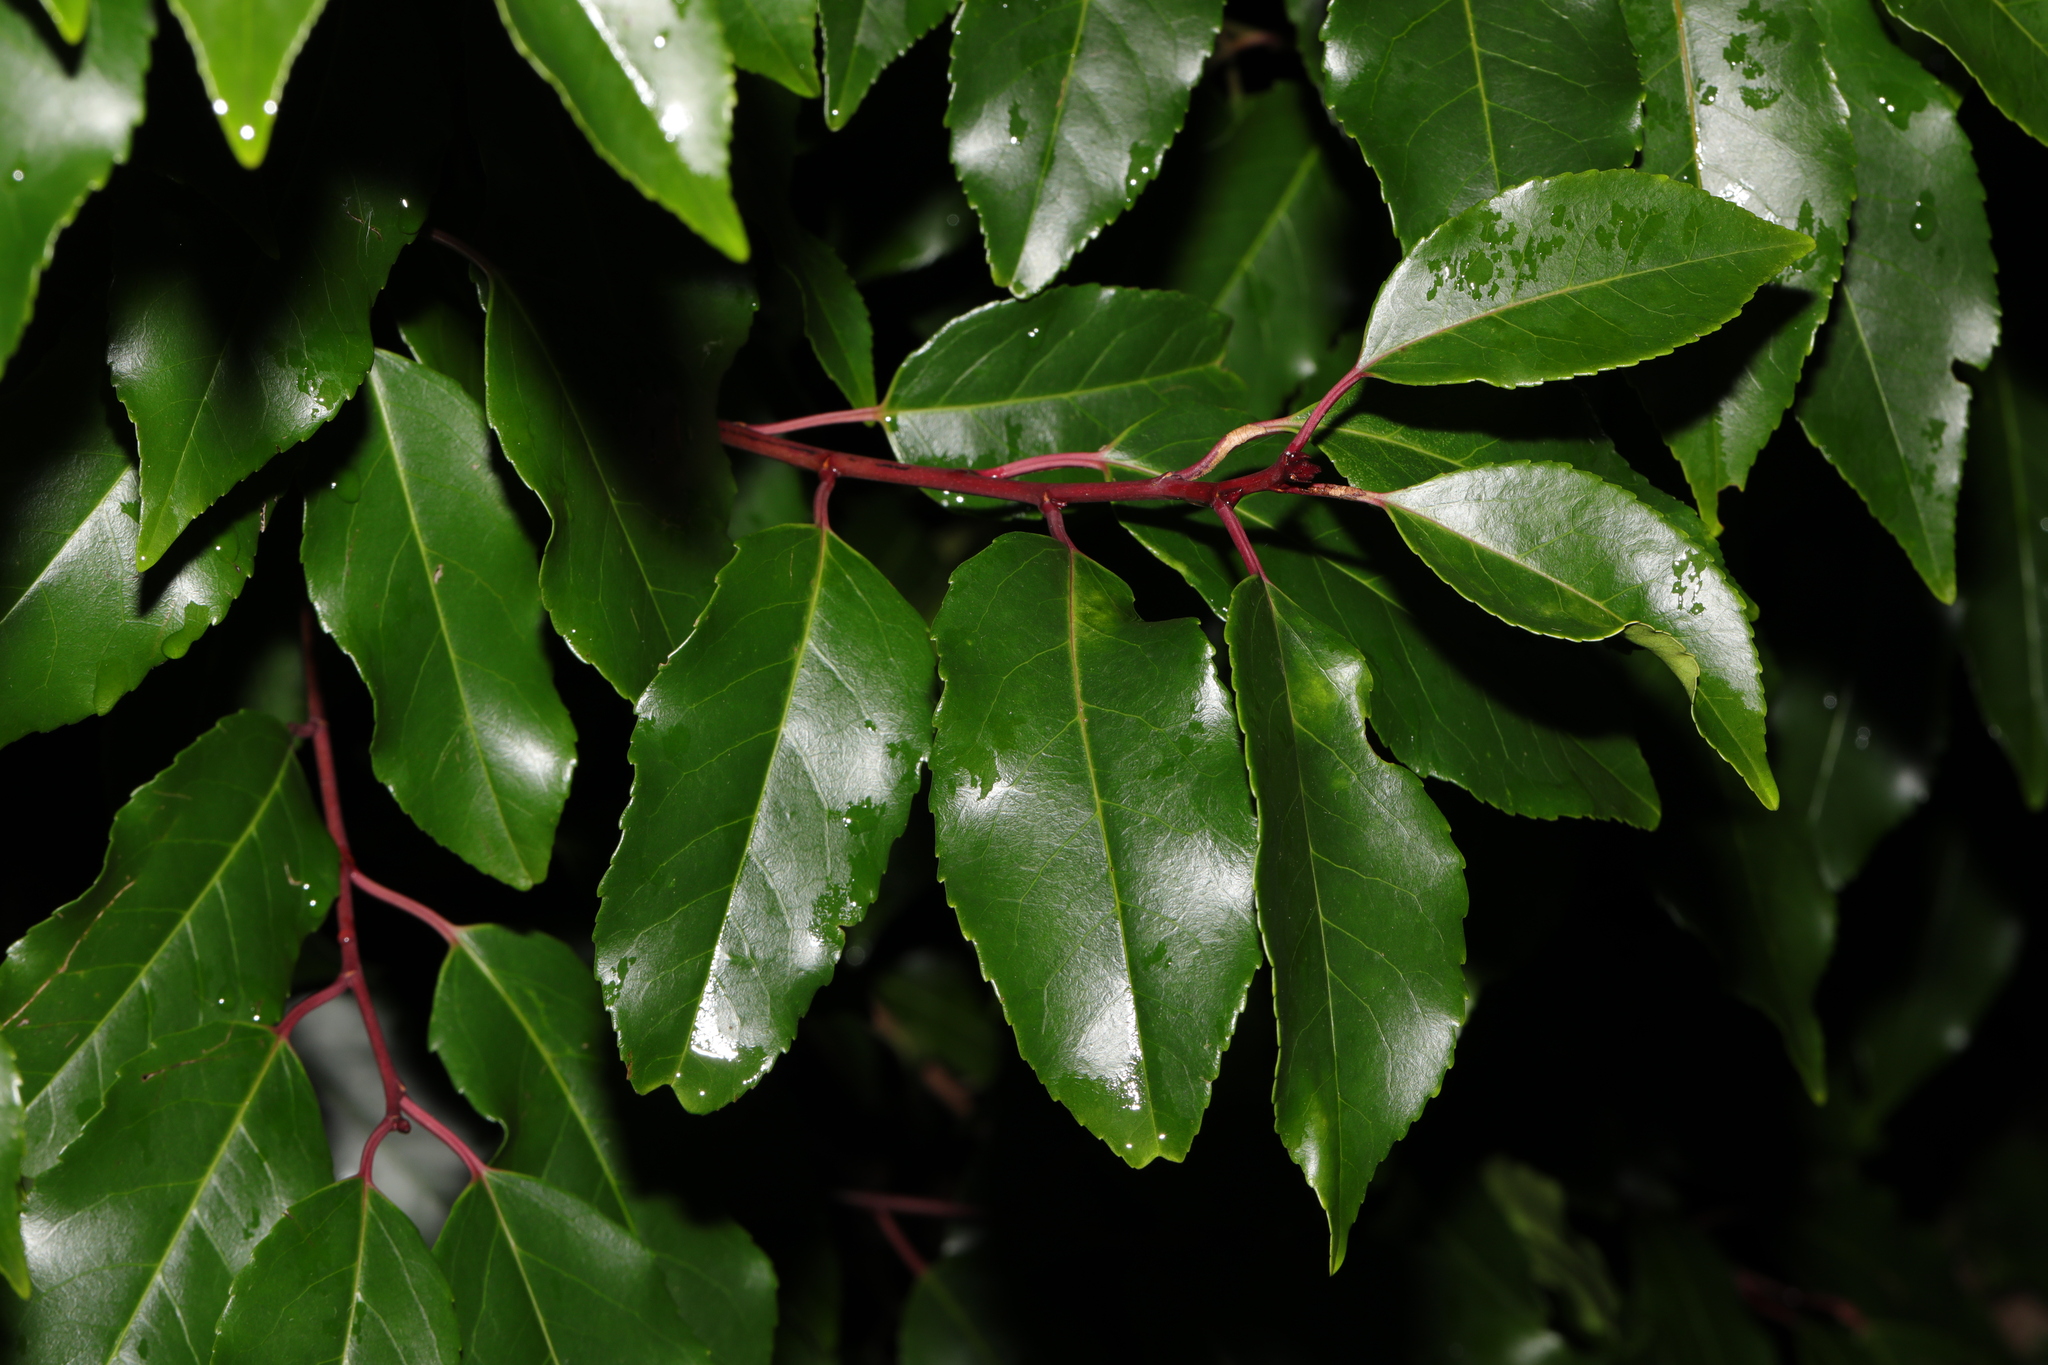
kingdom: Plantae
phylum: Tracheophyta
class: Magnoliopsida
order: Rosales
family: Rosaceae
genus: Prunus
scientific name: Prunus lusitanica
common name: Portugal laurel
